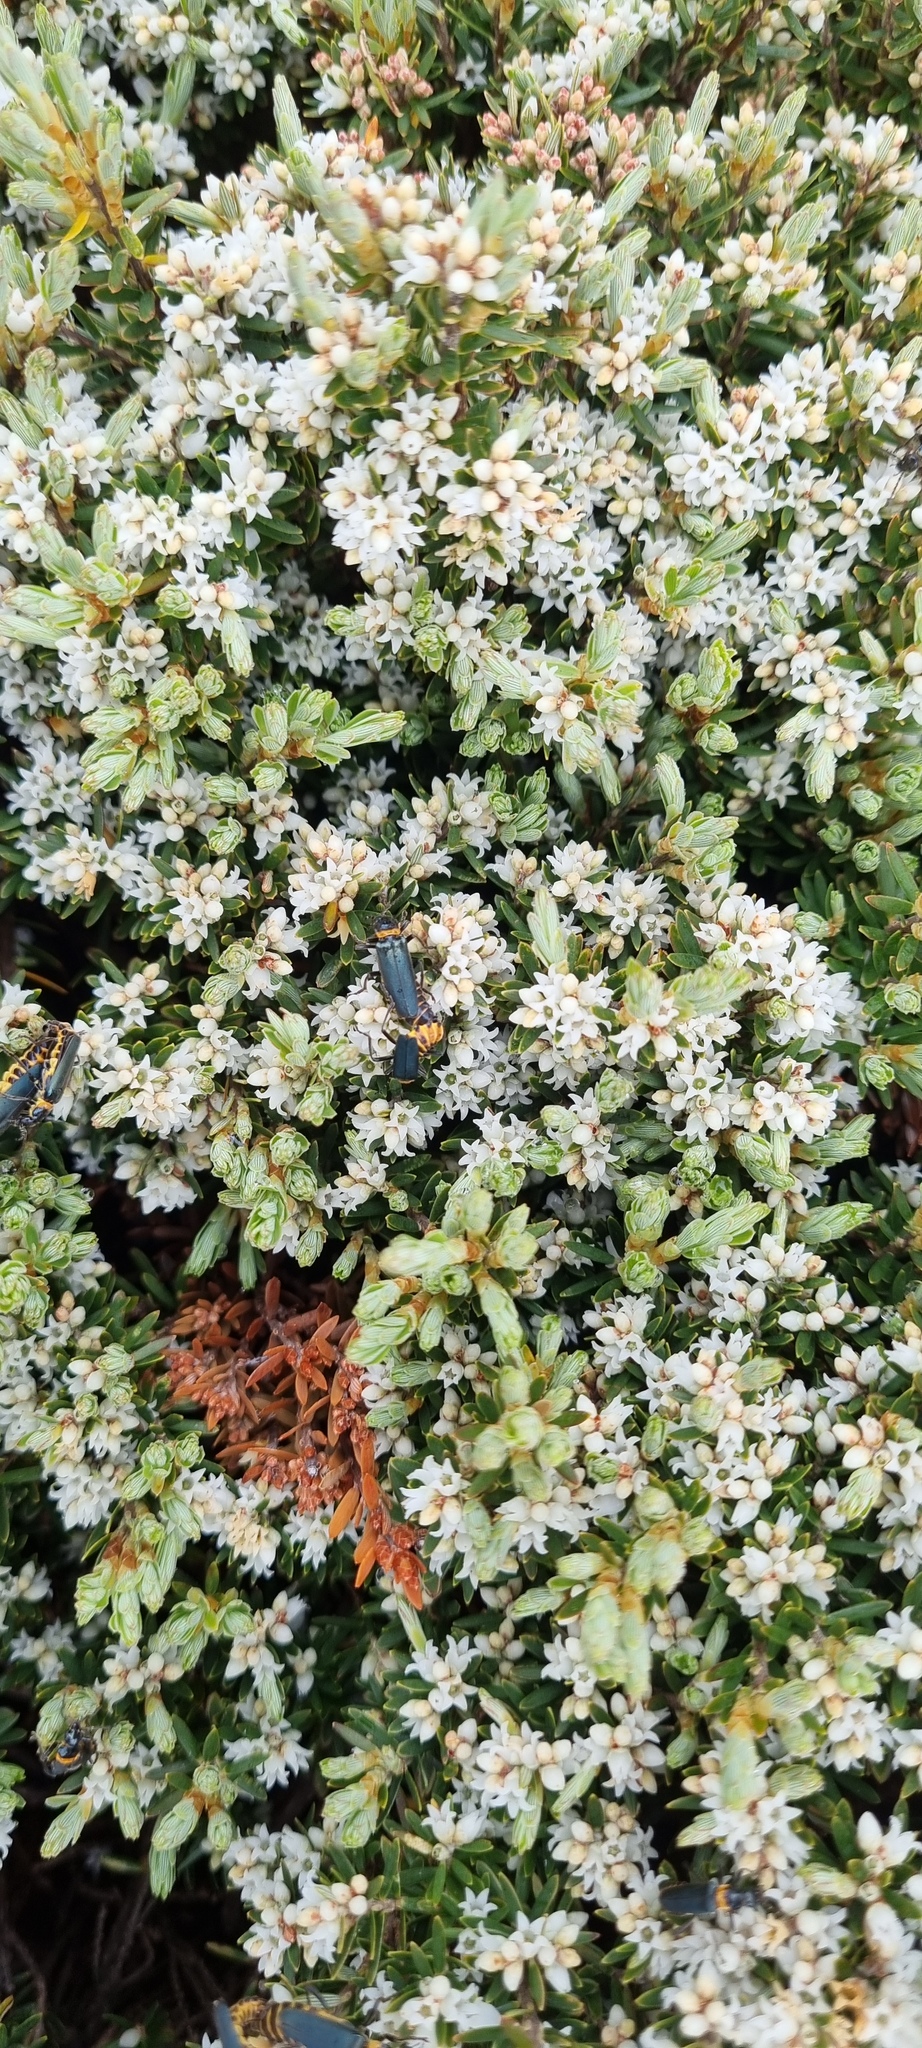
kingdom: Plantae
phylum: Tracheophyta
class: Magnoliopsida
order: Ericales
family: Ericaceae
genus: Acrothamnus
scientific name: Acrothamnus montanus
